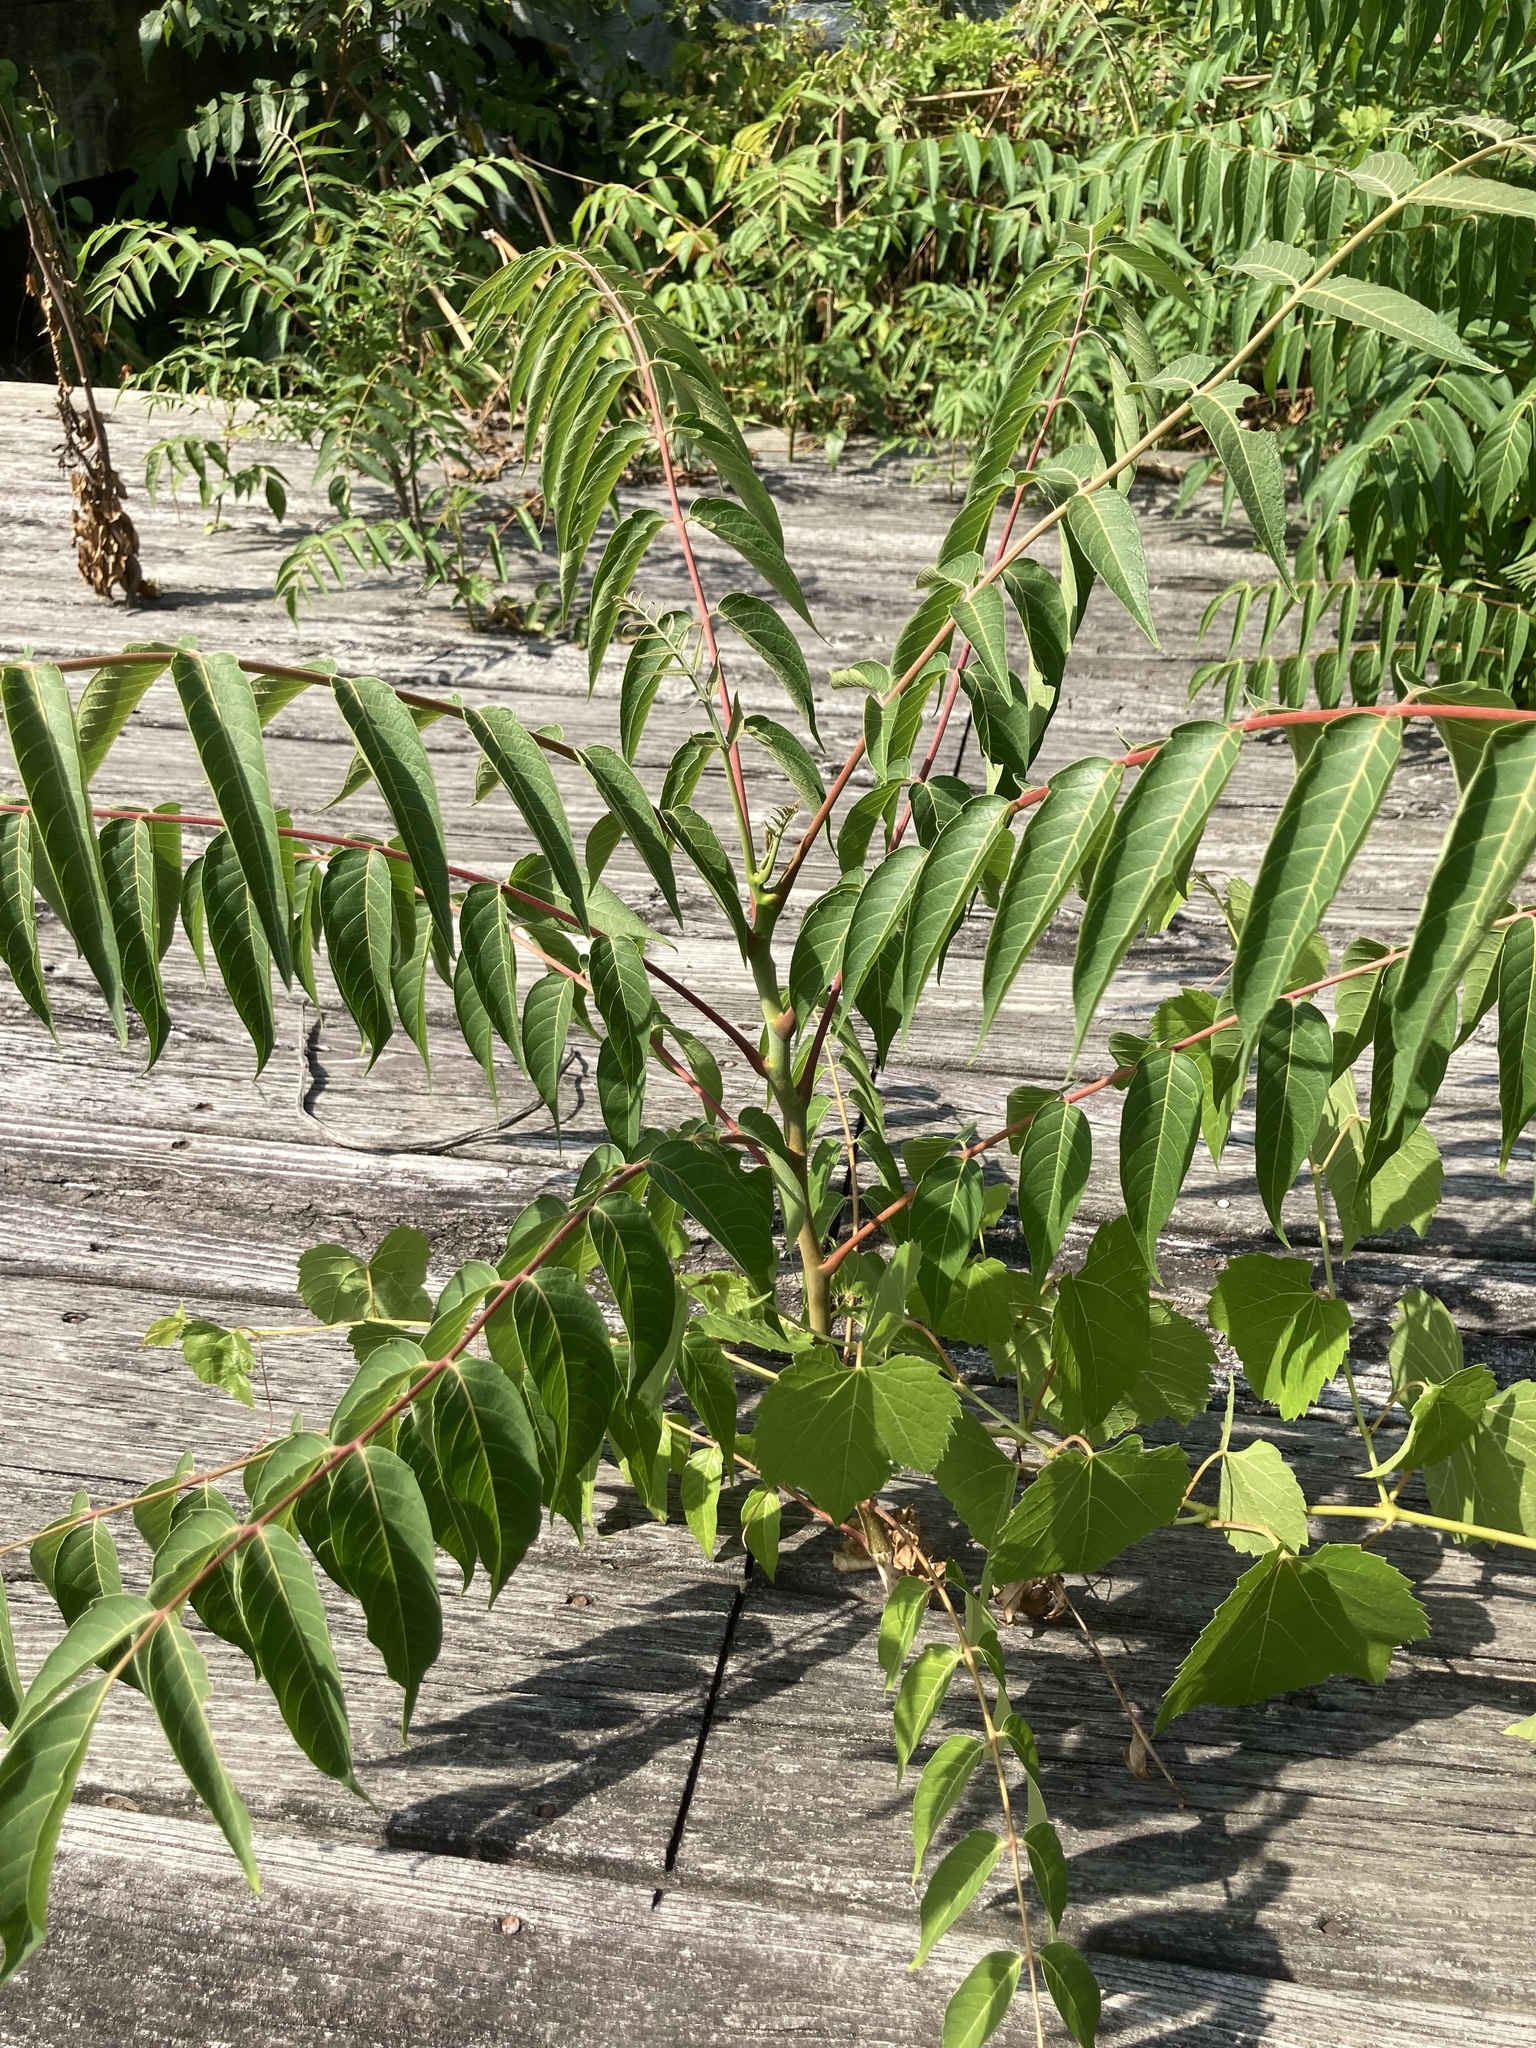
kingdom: Plantae
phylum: Tracheophyta
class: Magnoliopsida
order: Sapindales
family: Simaroubaceae
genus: Ailanthus
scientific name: Ailanthus altissima
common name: Tree-of-heaven
